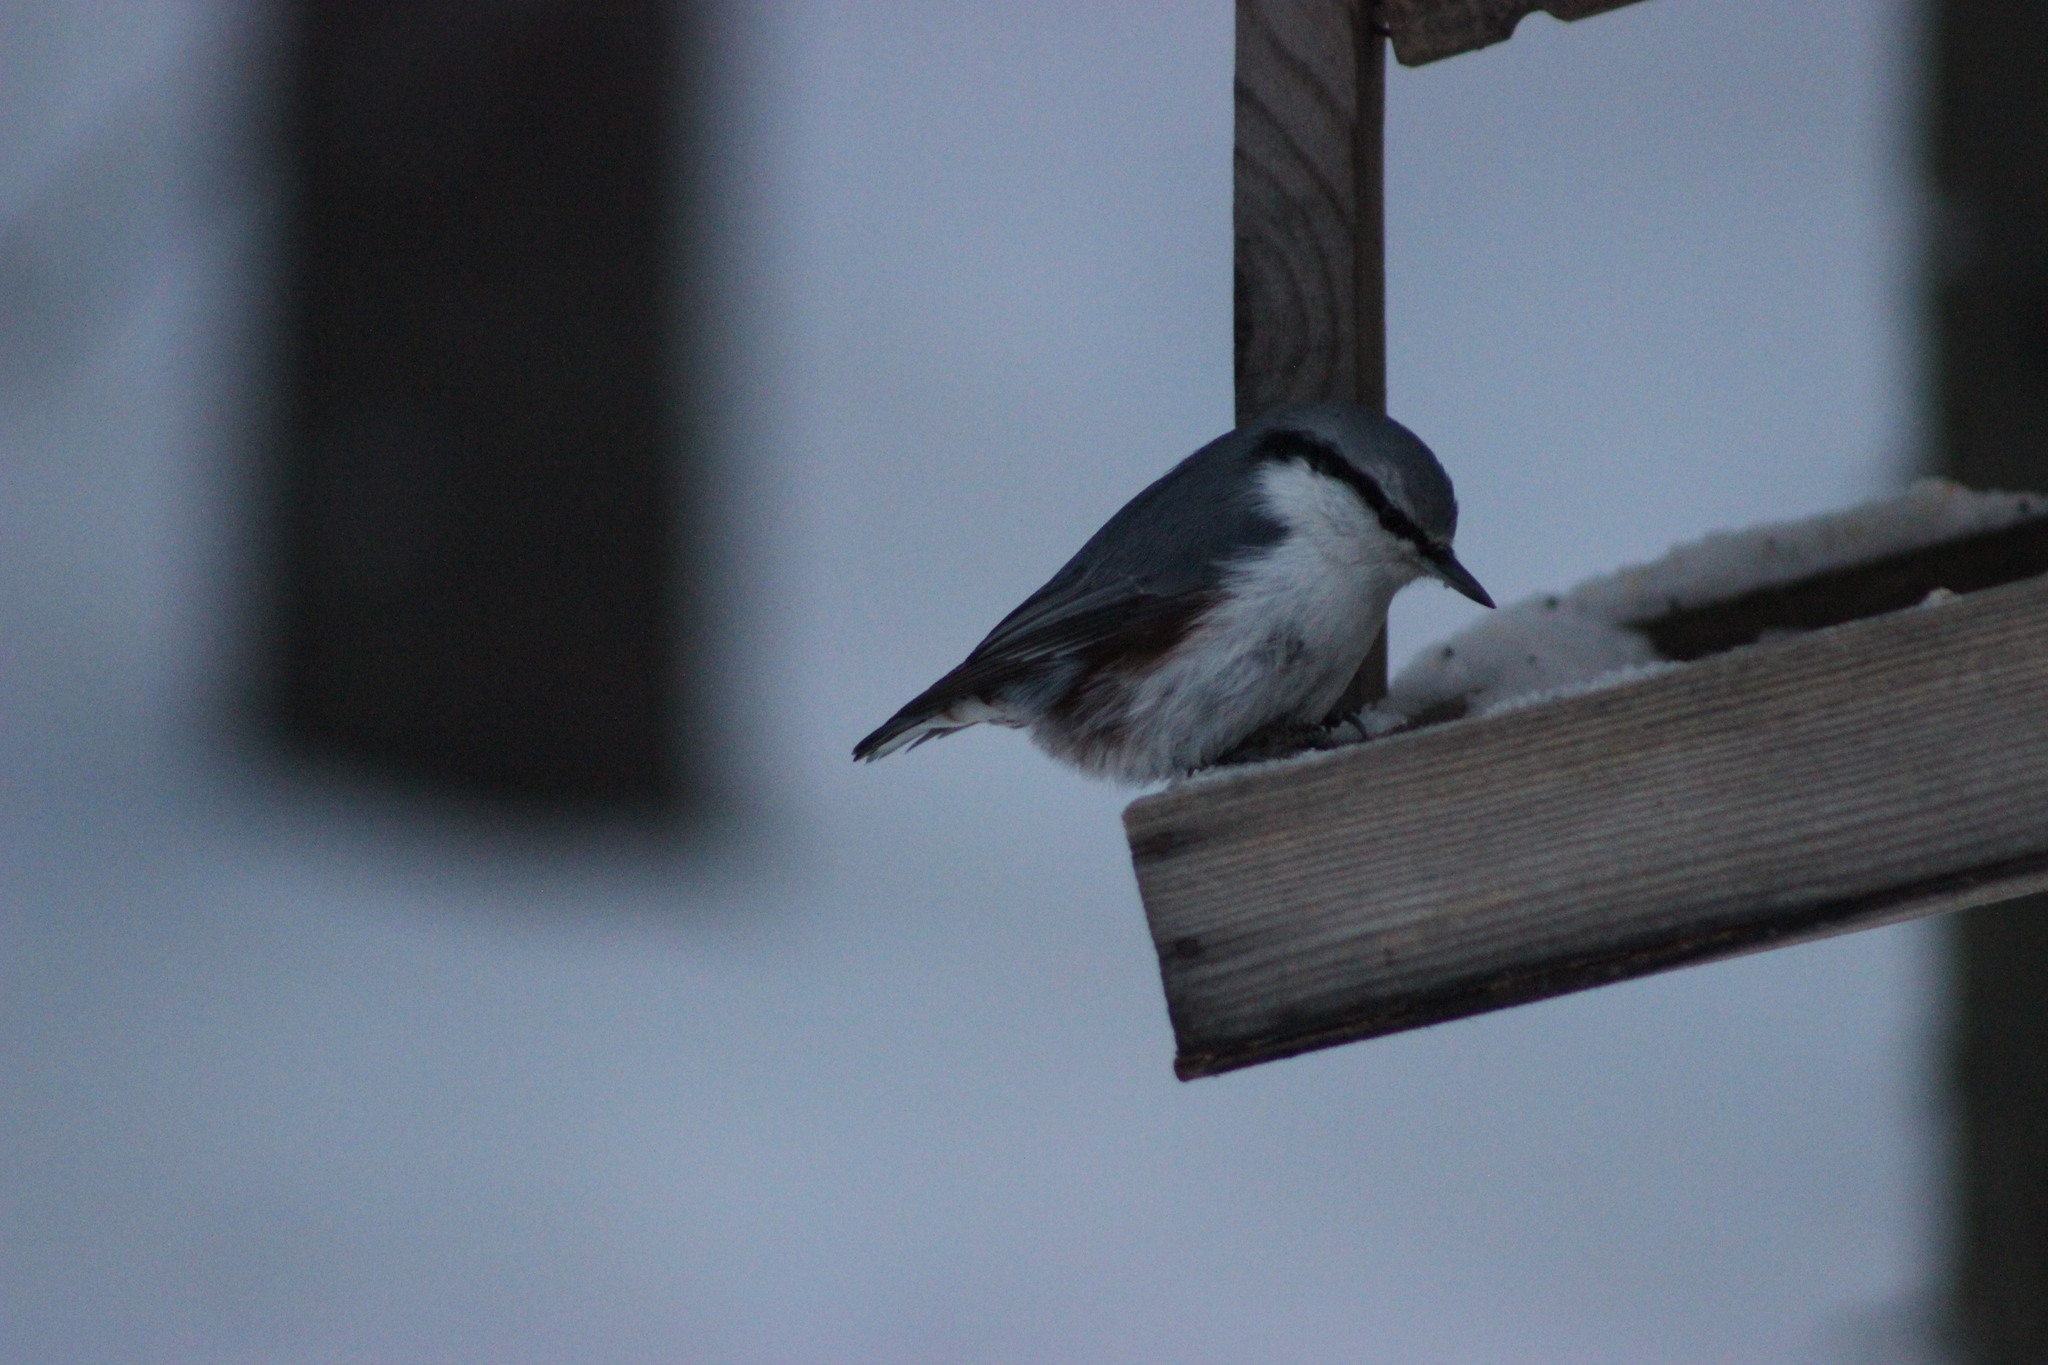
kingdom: Animalia
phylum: Chordata
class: Aves
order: Passeriformes
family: Sittidae
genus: Sitta
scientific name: Sitta europaea
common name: Eurasian nuthatch
